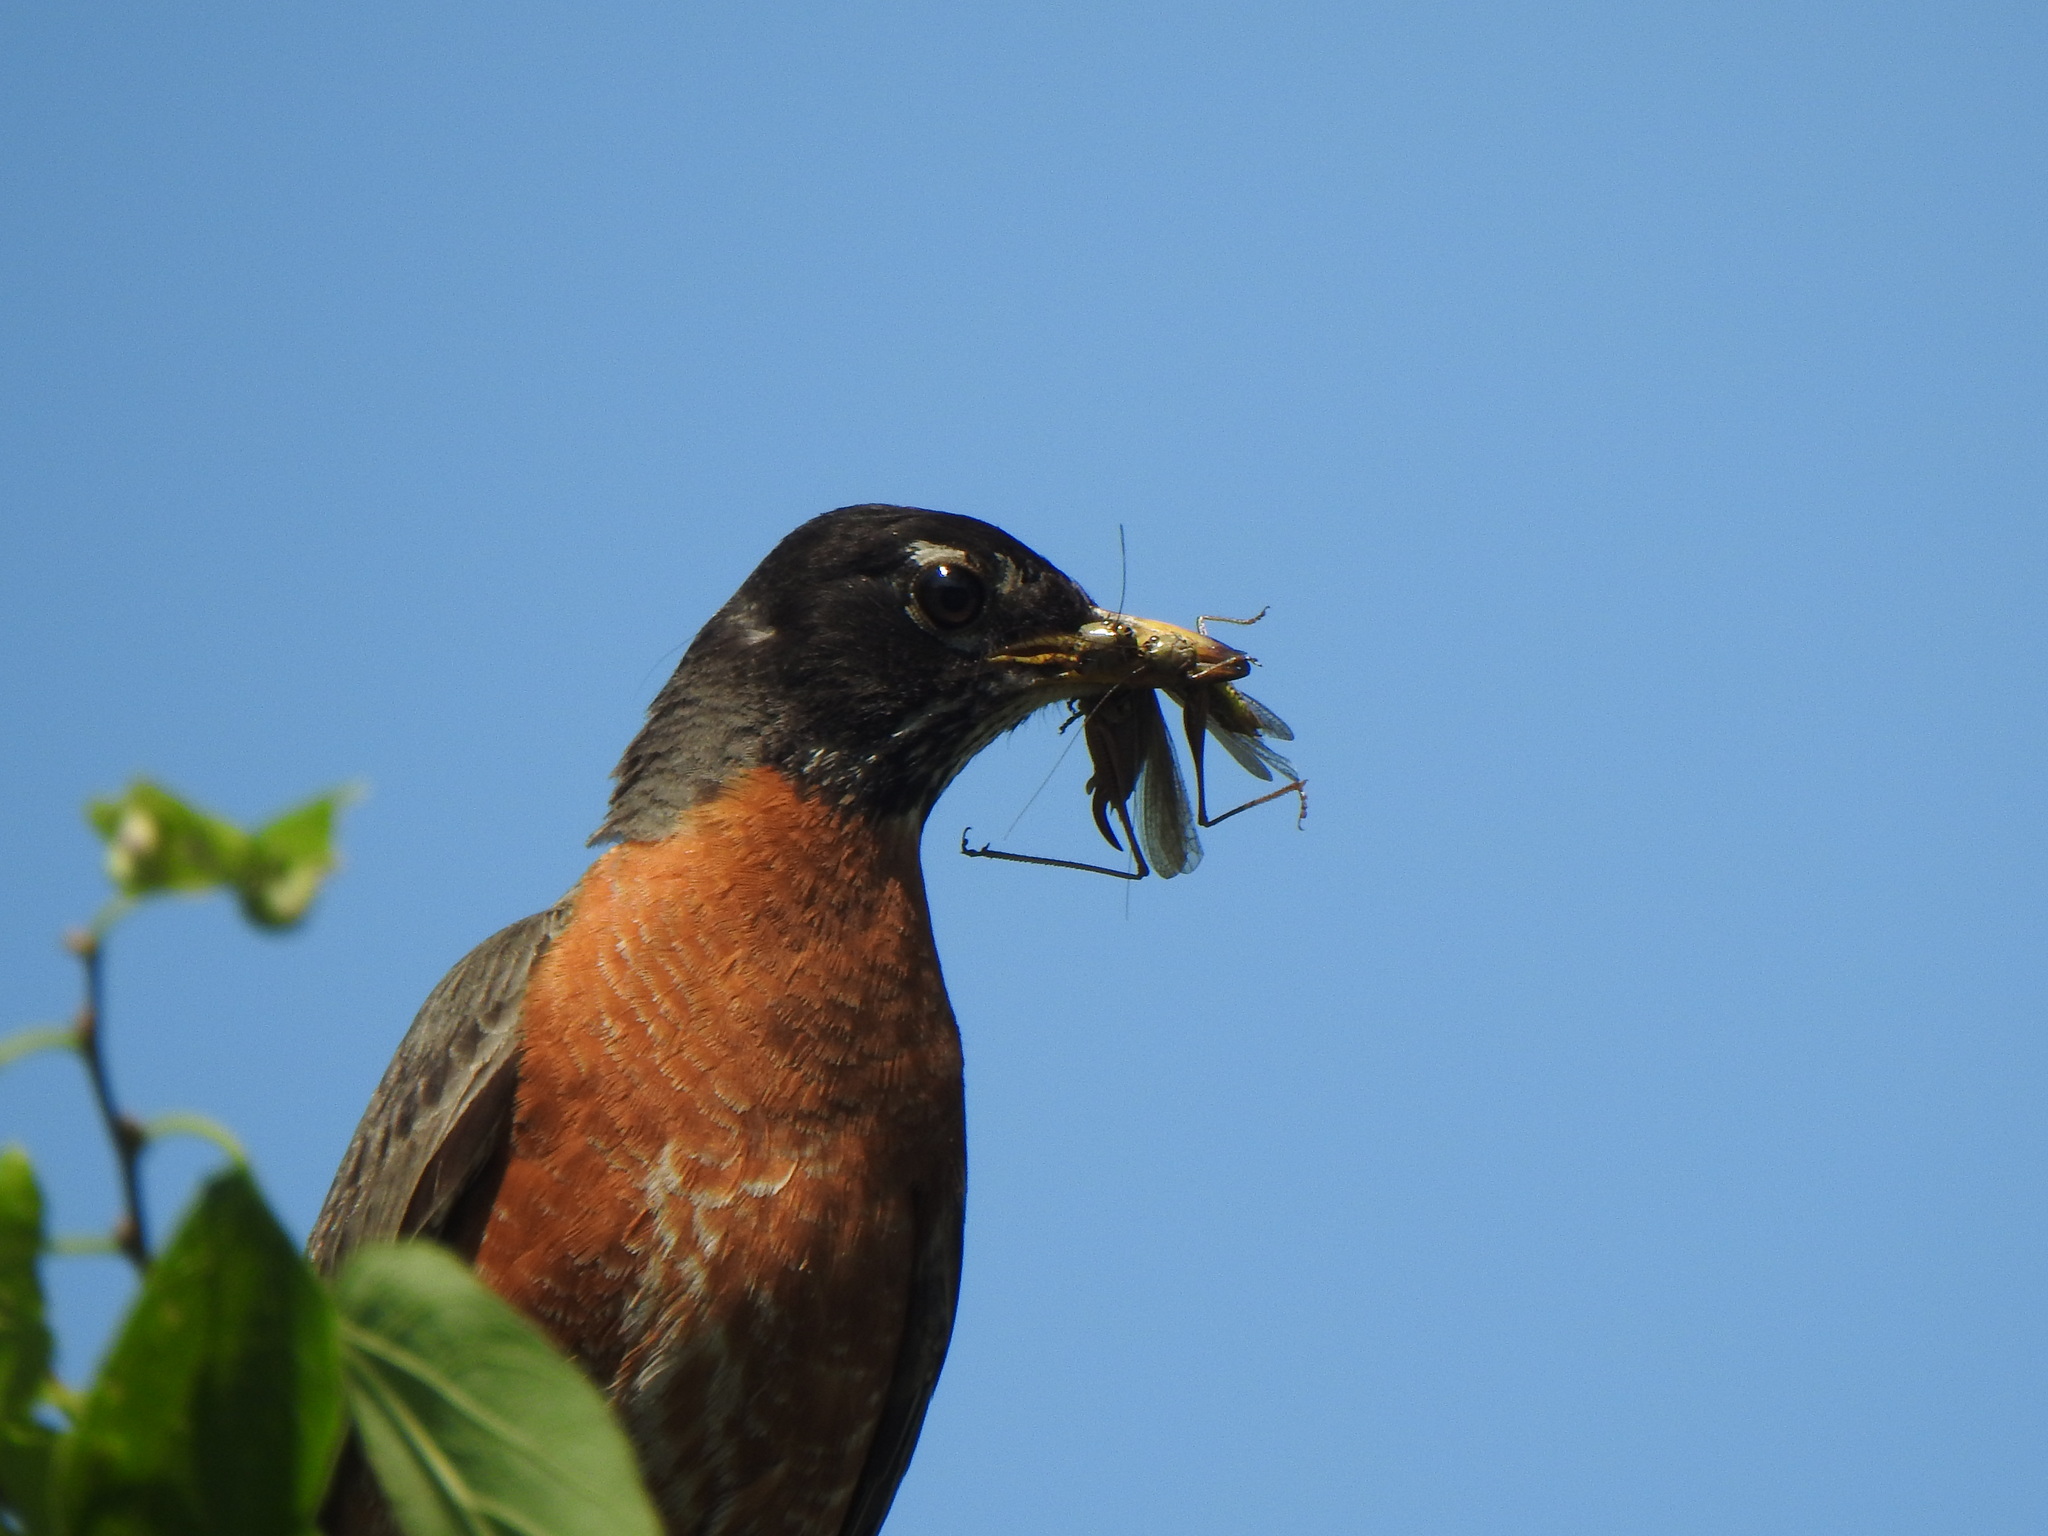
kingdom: Animalia
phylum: Arthropoda
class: Insecta
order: Orthoptera
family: Tettigoniidae
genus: Orchelimum
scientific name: Orchelimum
